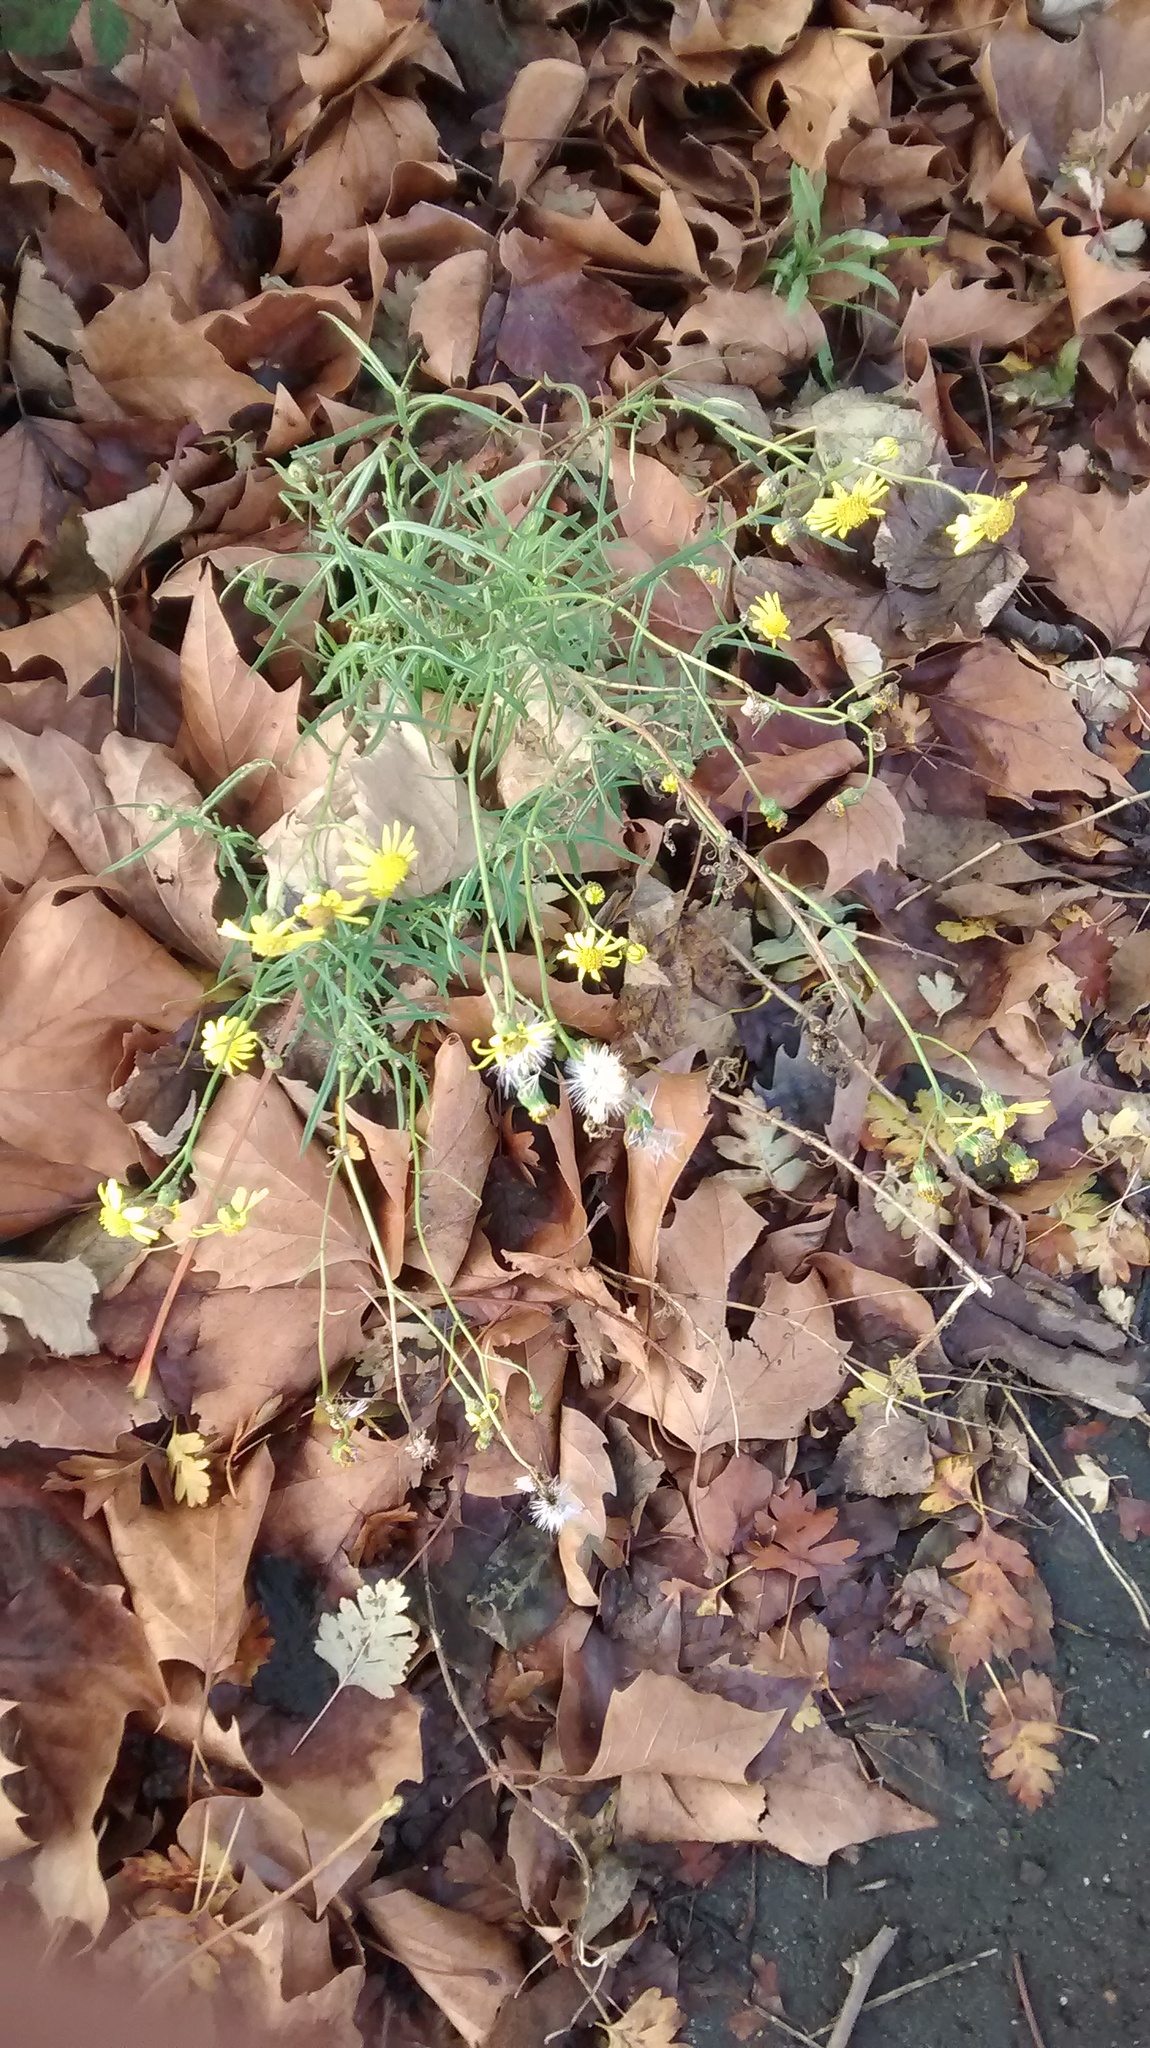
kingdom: Plantae
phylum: Tracheophyta
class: Magnoliopsida
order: Asterales
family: Asteraceae
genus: Senecio
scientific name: Senecio inaequidens
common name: Narrow-leaved ragwort
